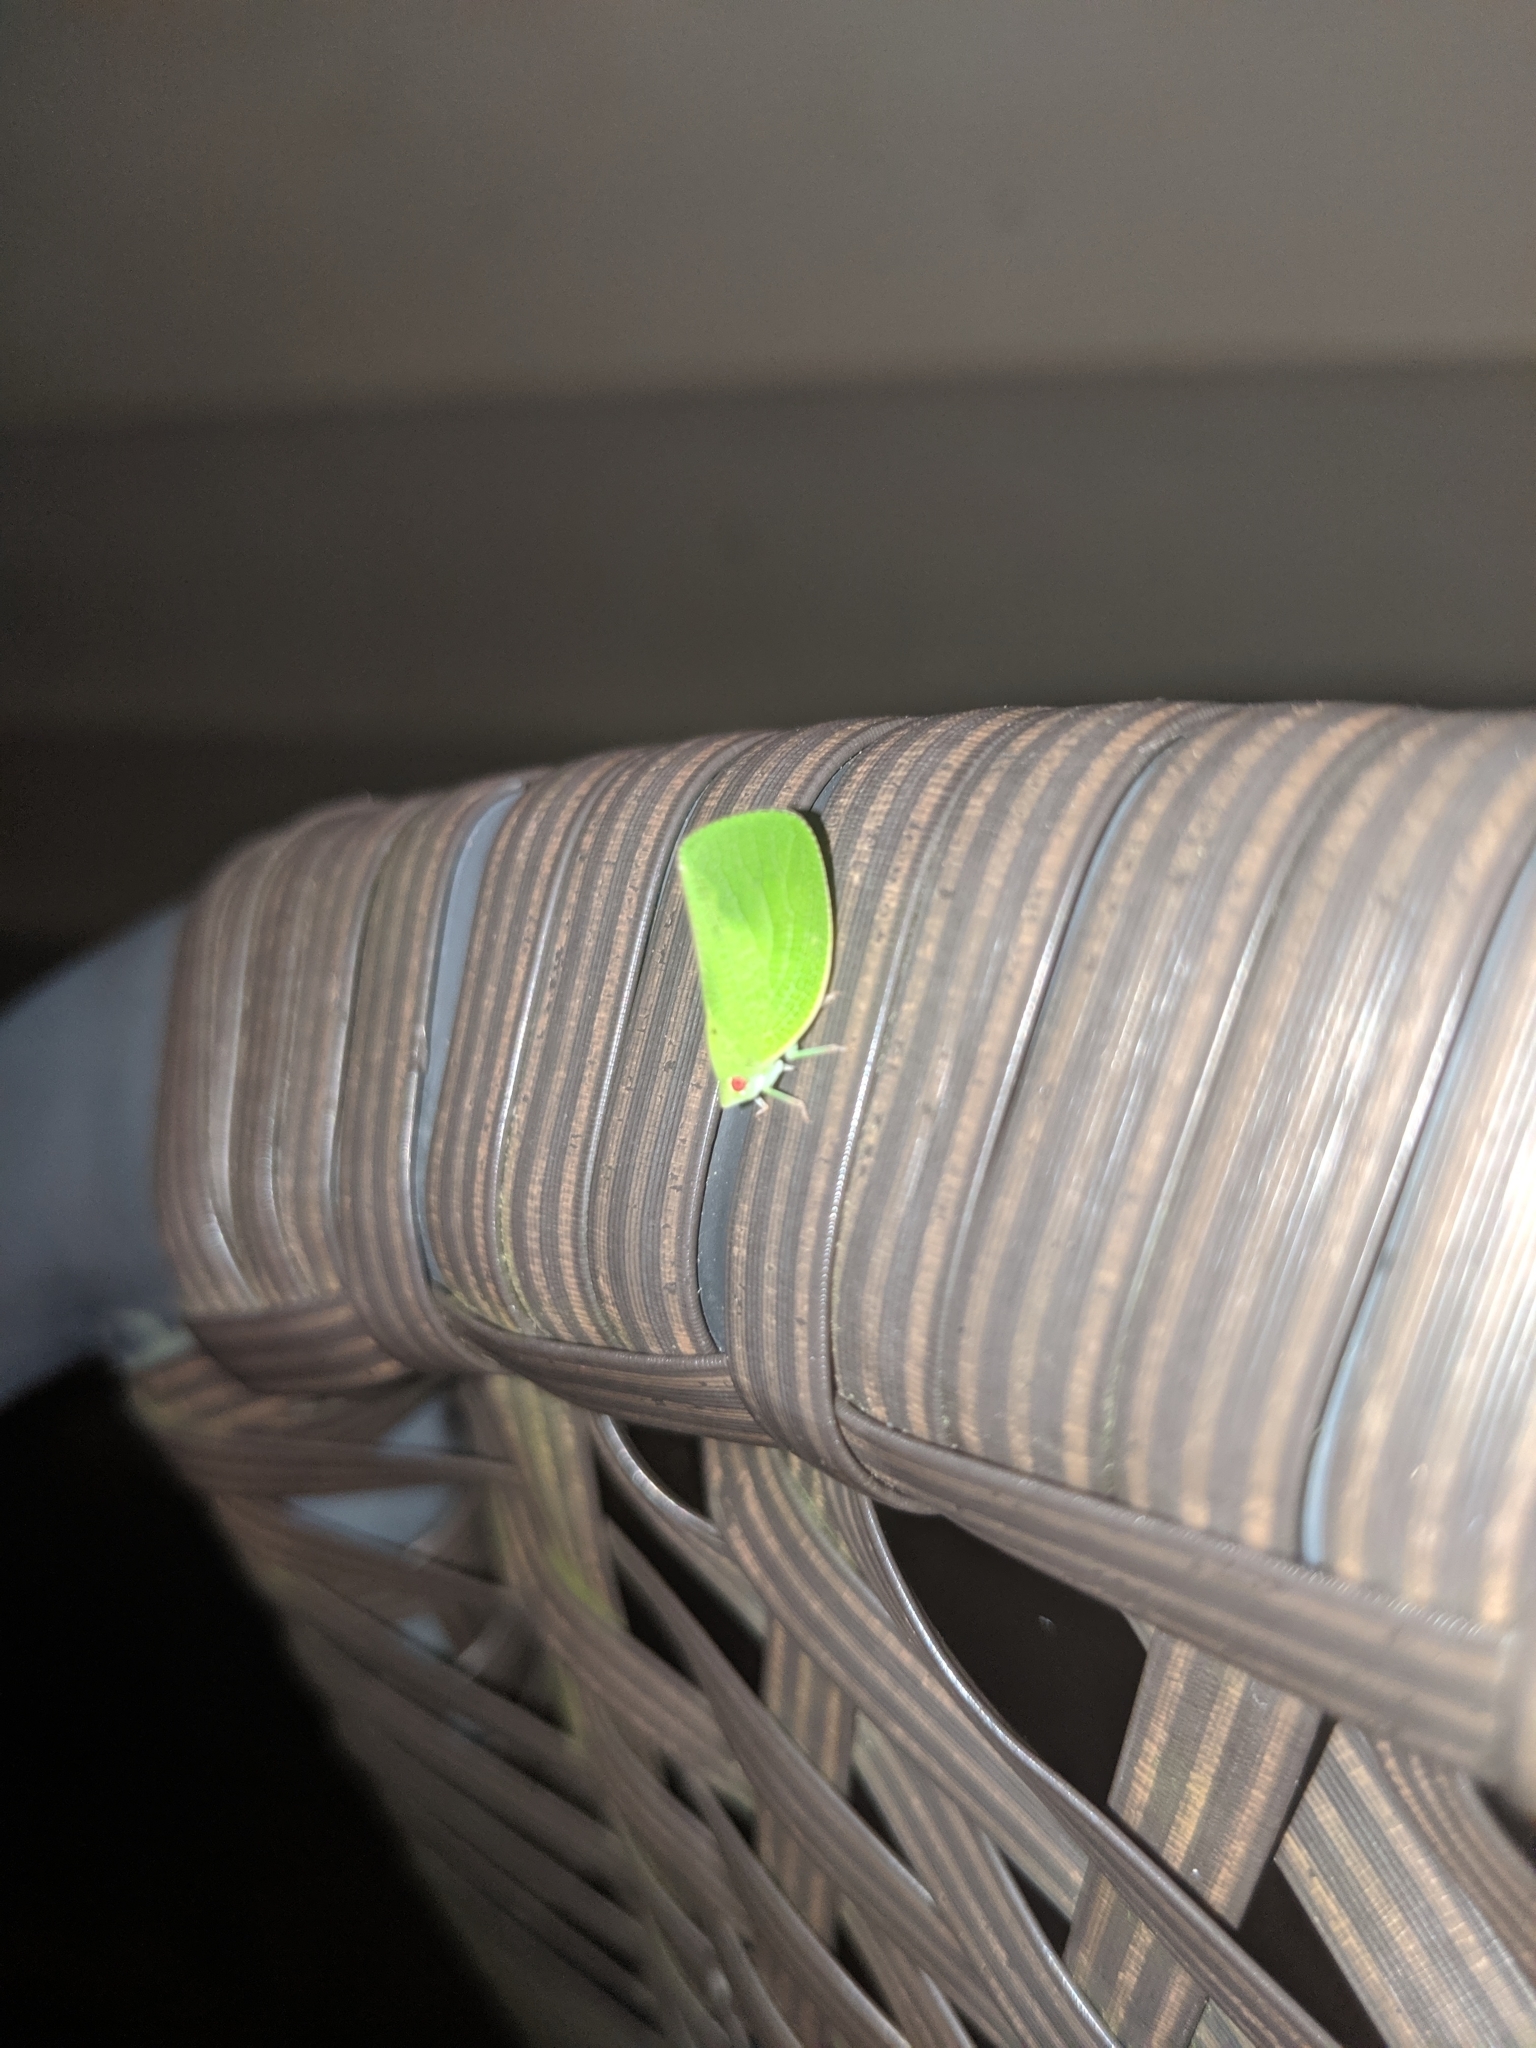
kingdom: Animalia
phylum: Arthropoda
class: Insecta
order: Hemiptera
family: Acanaloniidae
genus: Acanalonia
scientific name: Acanalonia conica
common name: Green cone-headed planthopper
